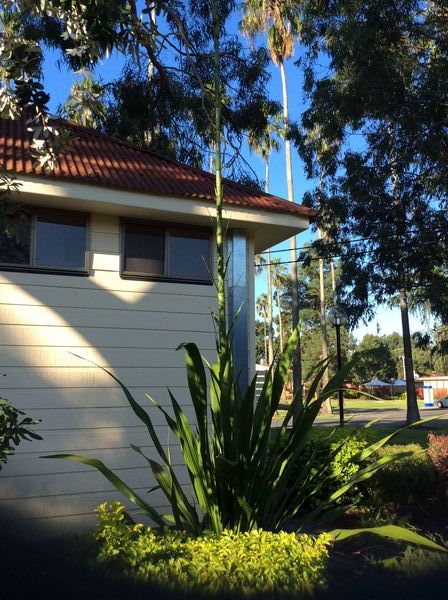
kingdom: Plantae
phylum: Tracheophyta
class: Liliopsida
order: Asparagales
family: Doryanthaceae
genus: Doryanthes
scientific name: Doryanthes excelsa
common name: Giant-lily
